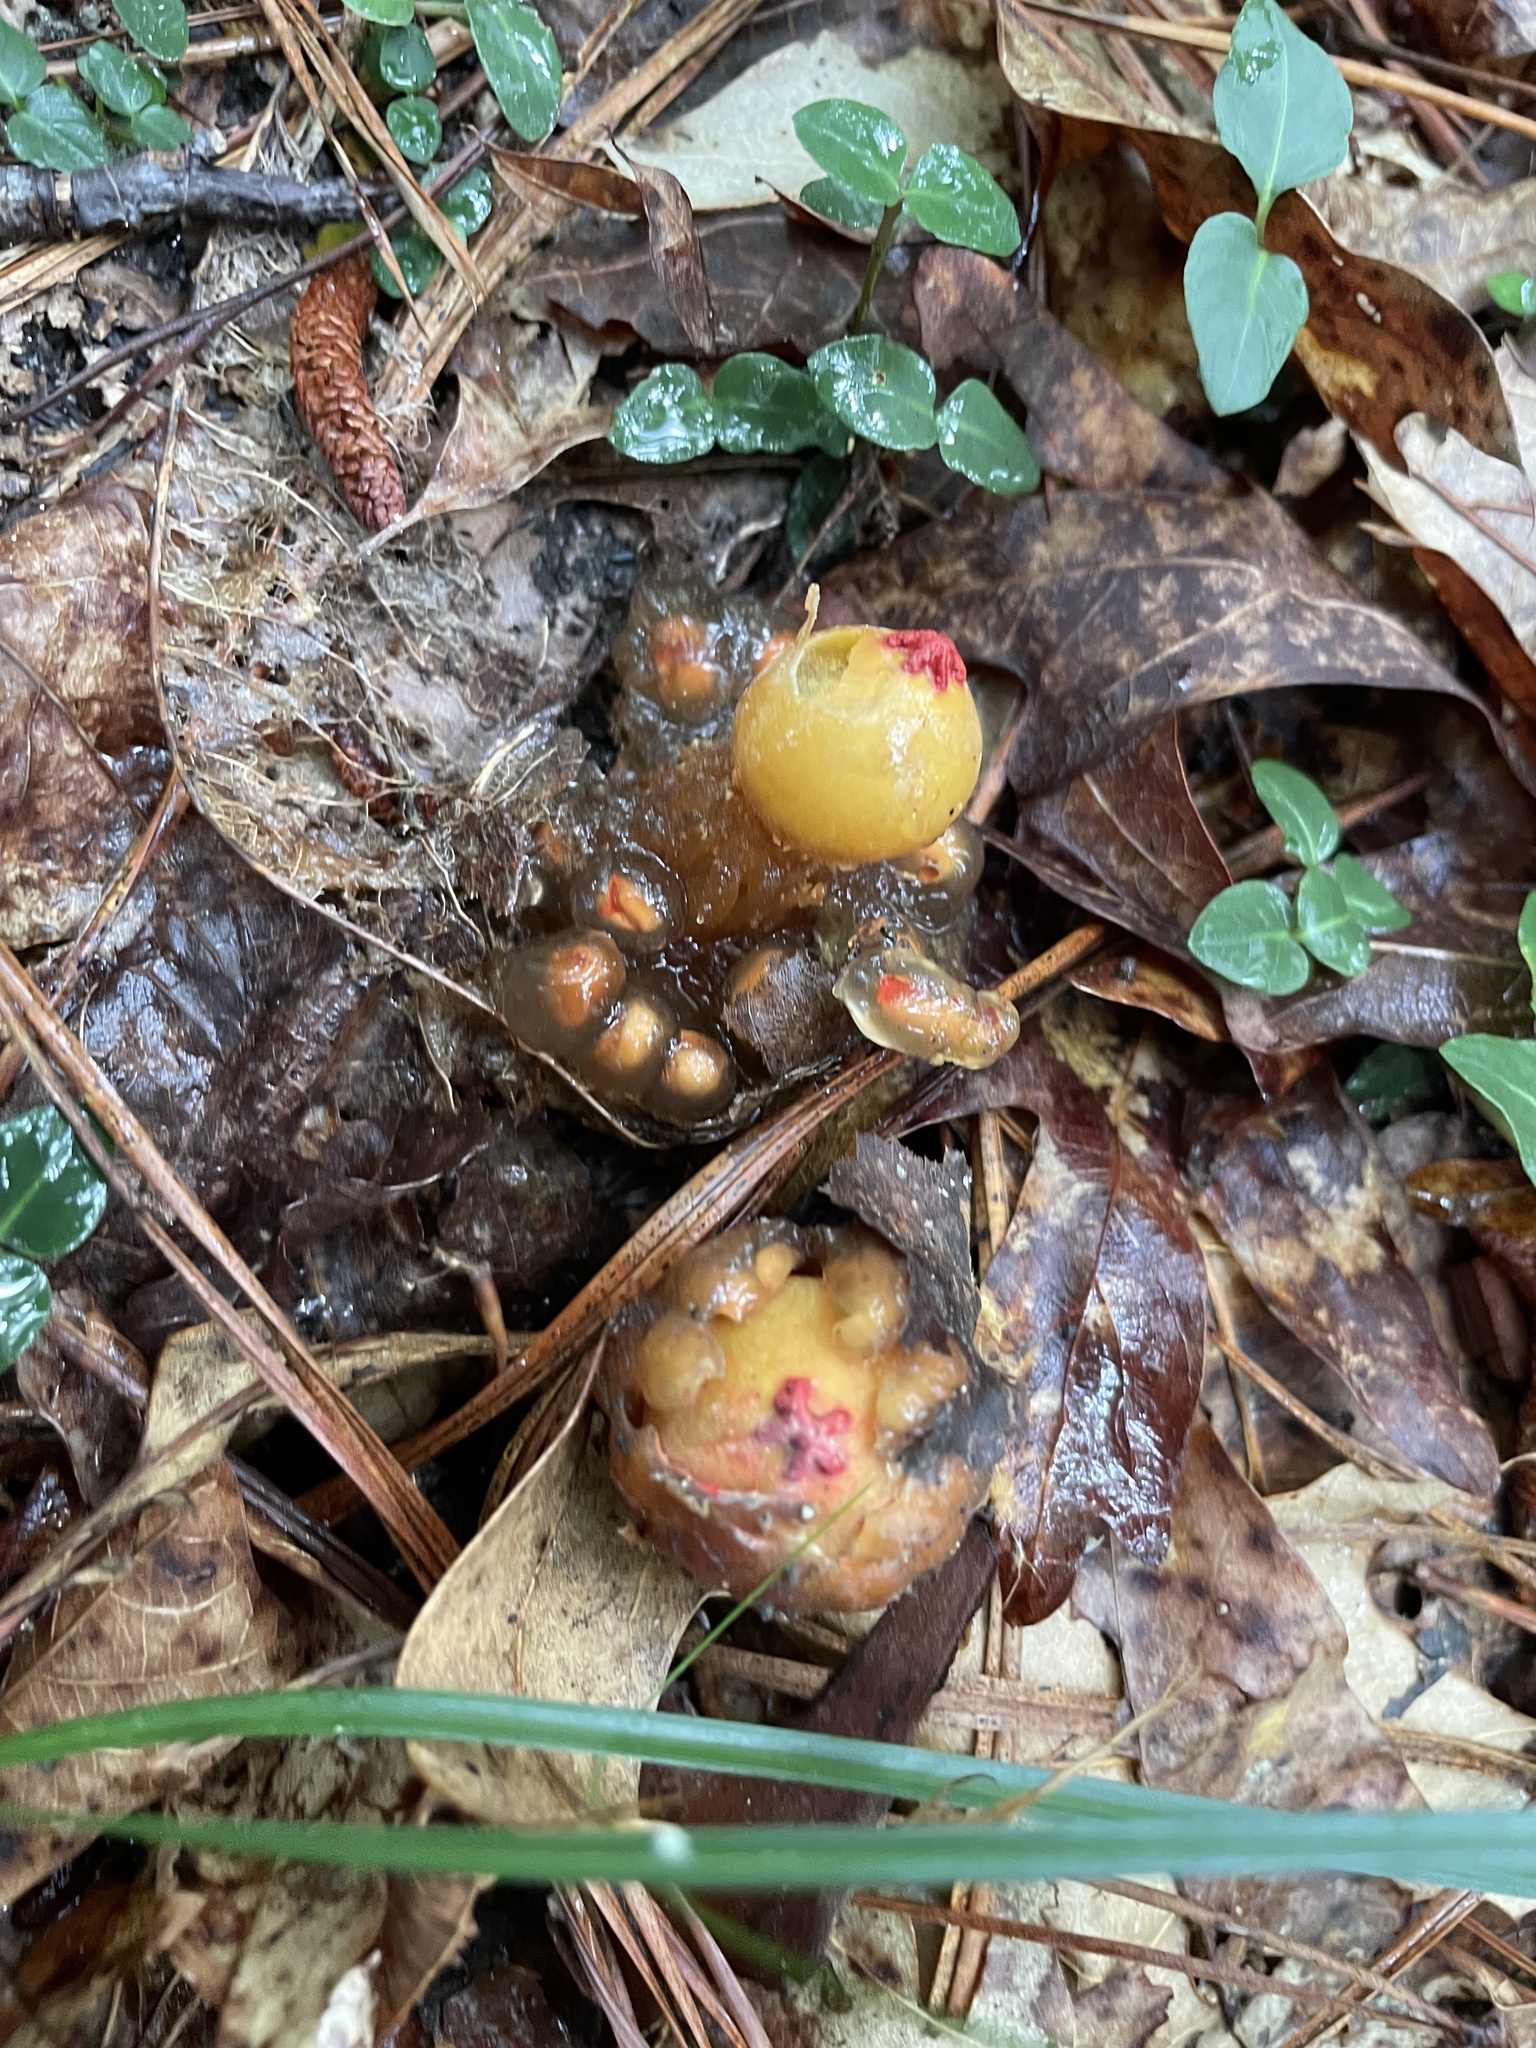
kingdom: Fungi
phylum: Basidiomycota
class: Agaricomycetes
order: Boletales
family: Calostomataceae
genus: Calostoma
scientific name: Calostoma cinnabarinum
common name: Stalked puffball-in-aspic
